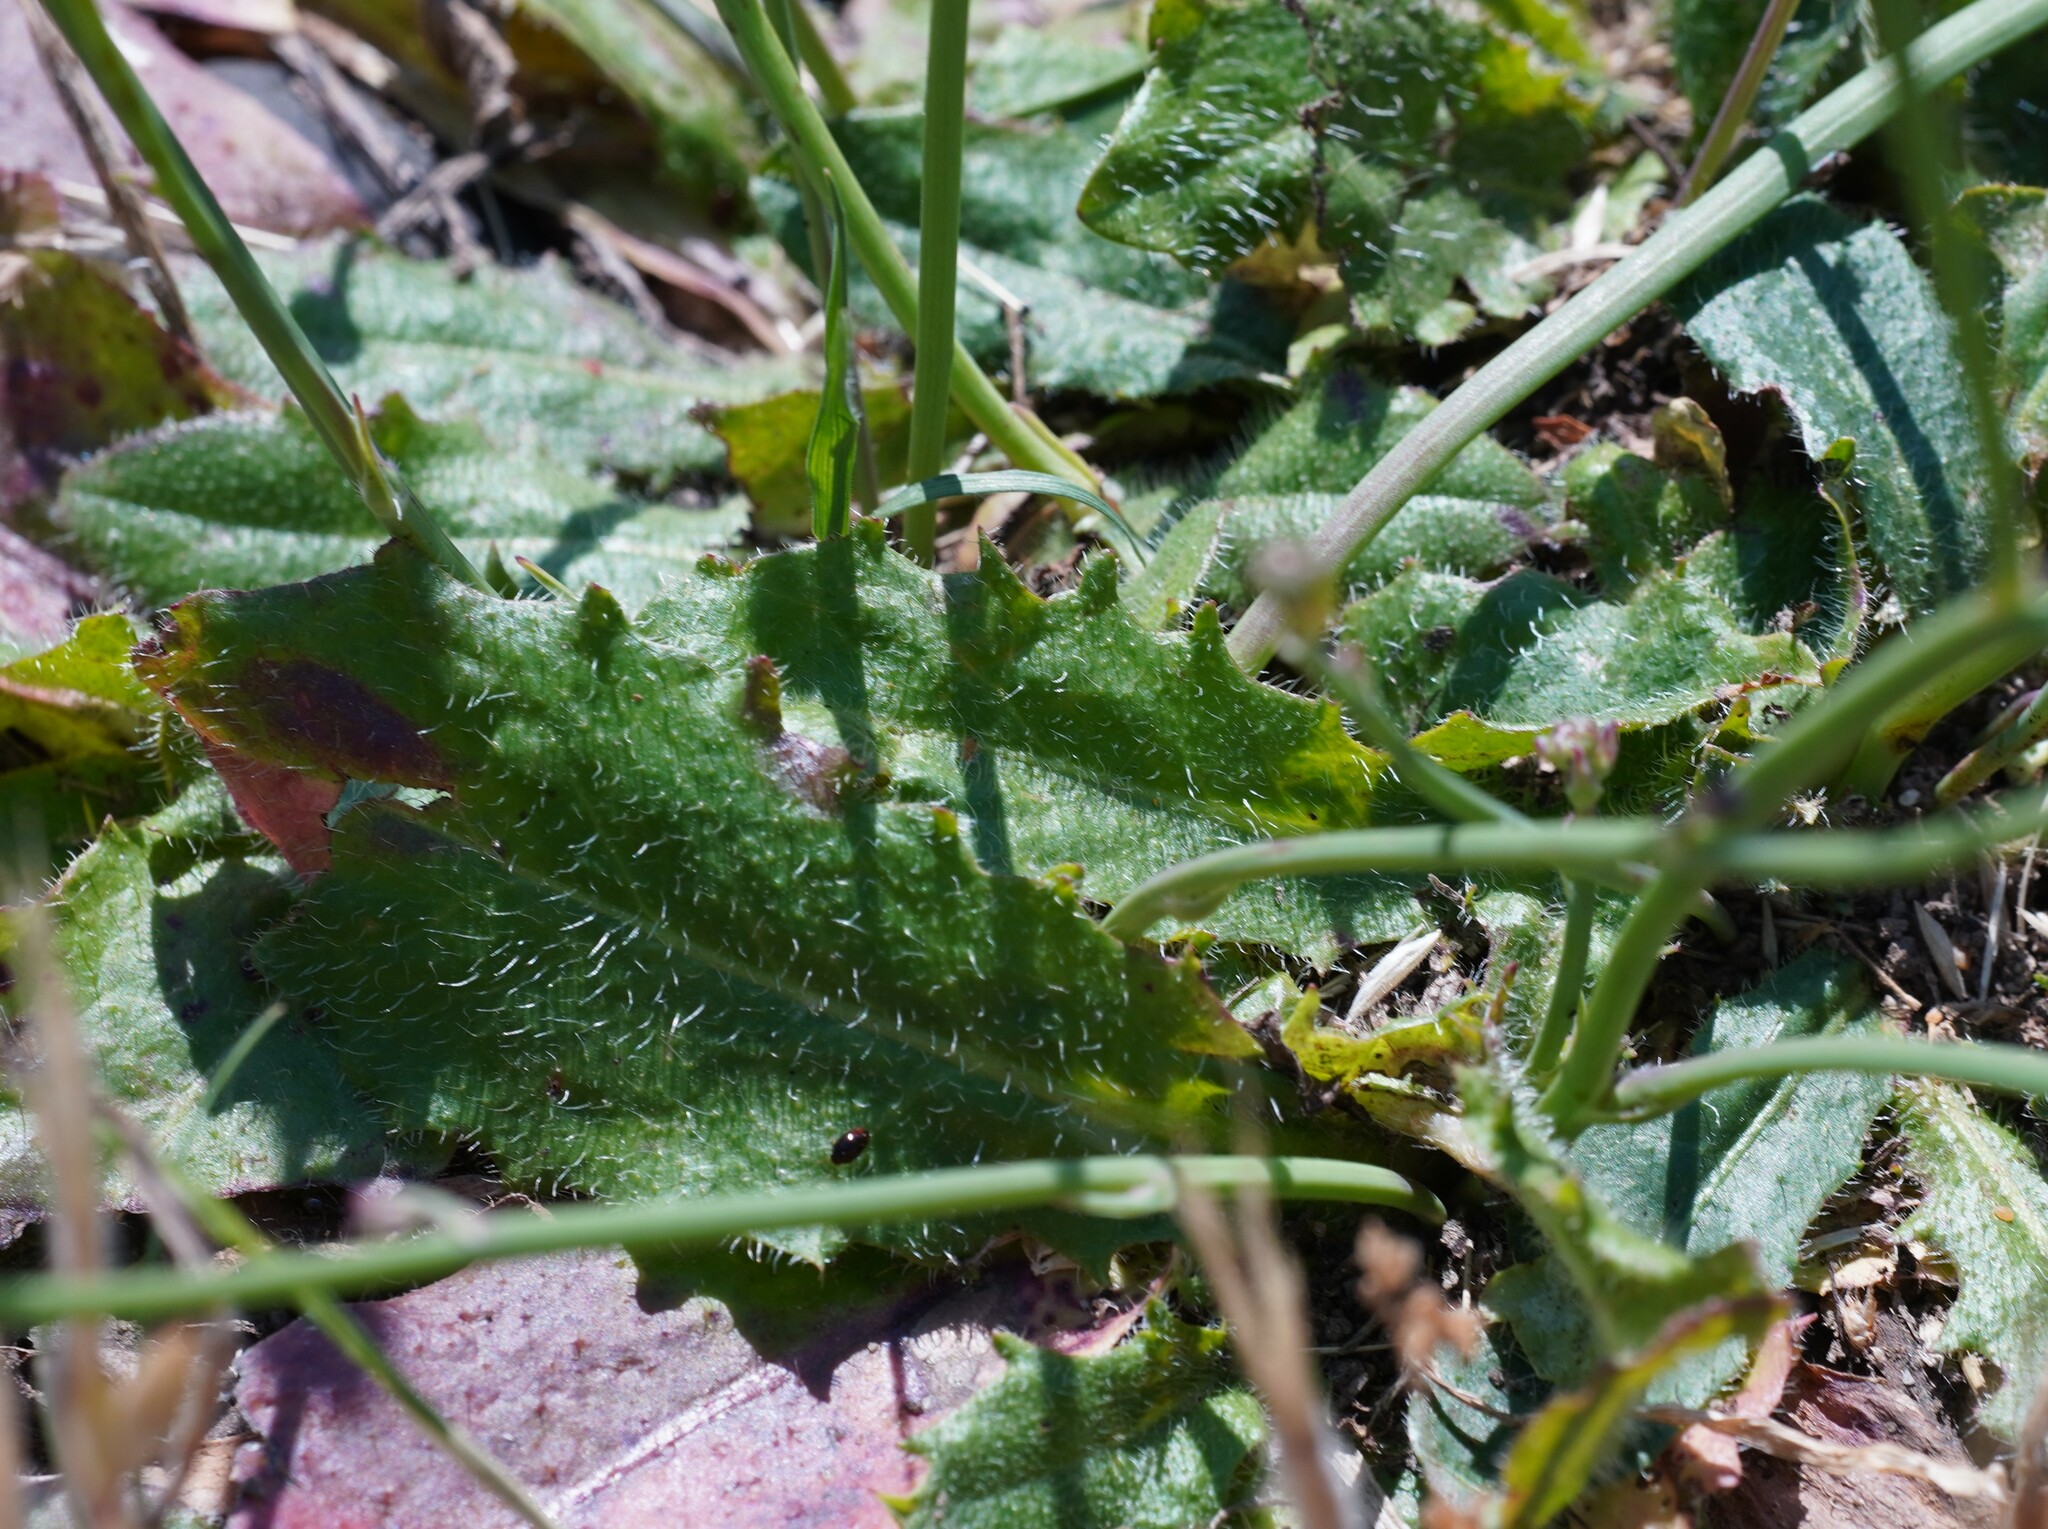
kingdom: Plantae
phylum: Tracheophyta
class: Magnoliopsida
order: Asterales
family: Asteraceae
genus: Hypochaeris
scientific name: Hypochaeris radicata
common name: Flatweed
